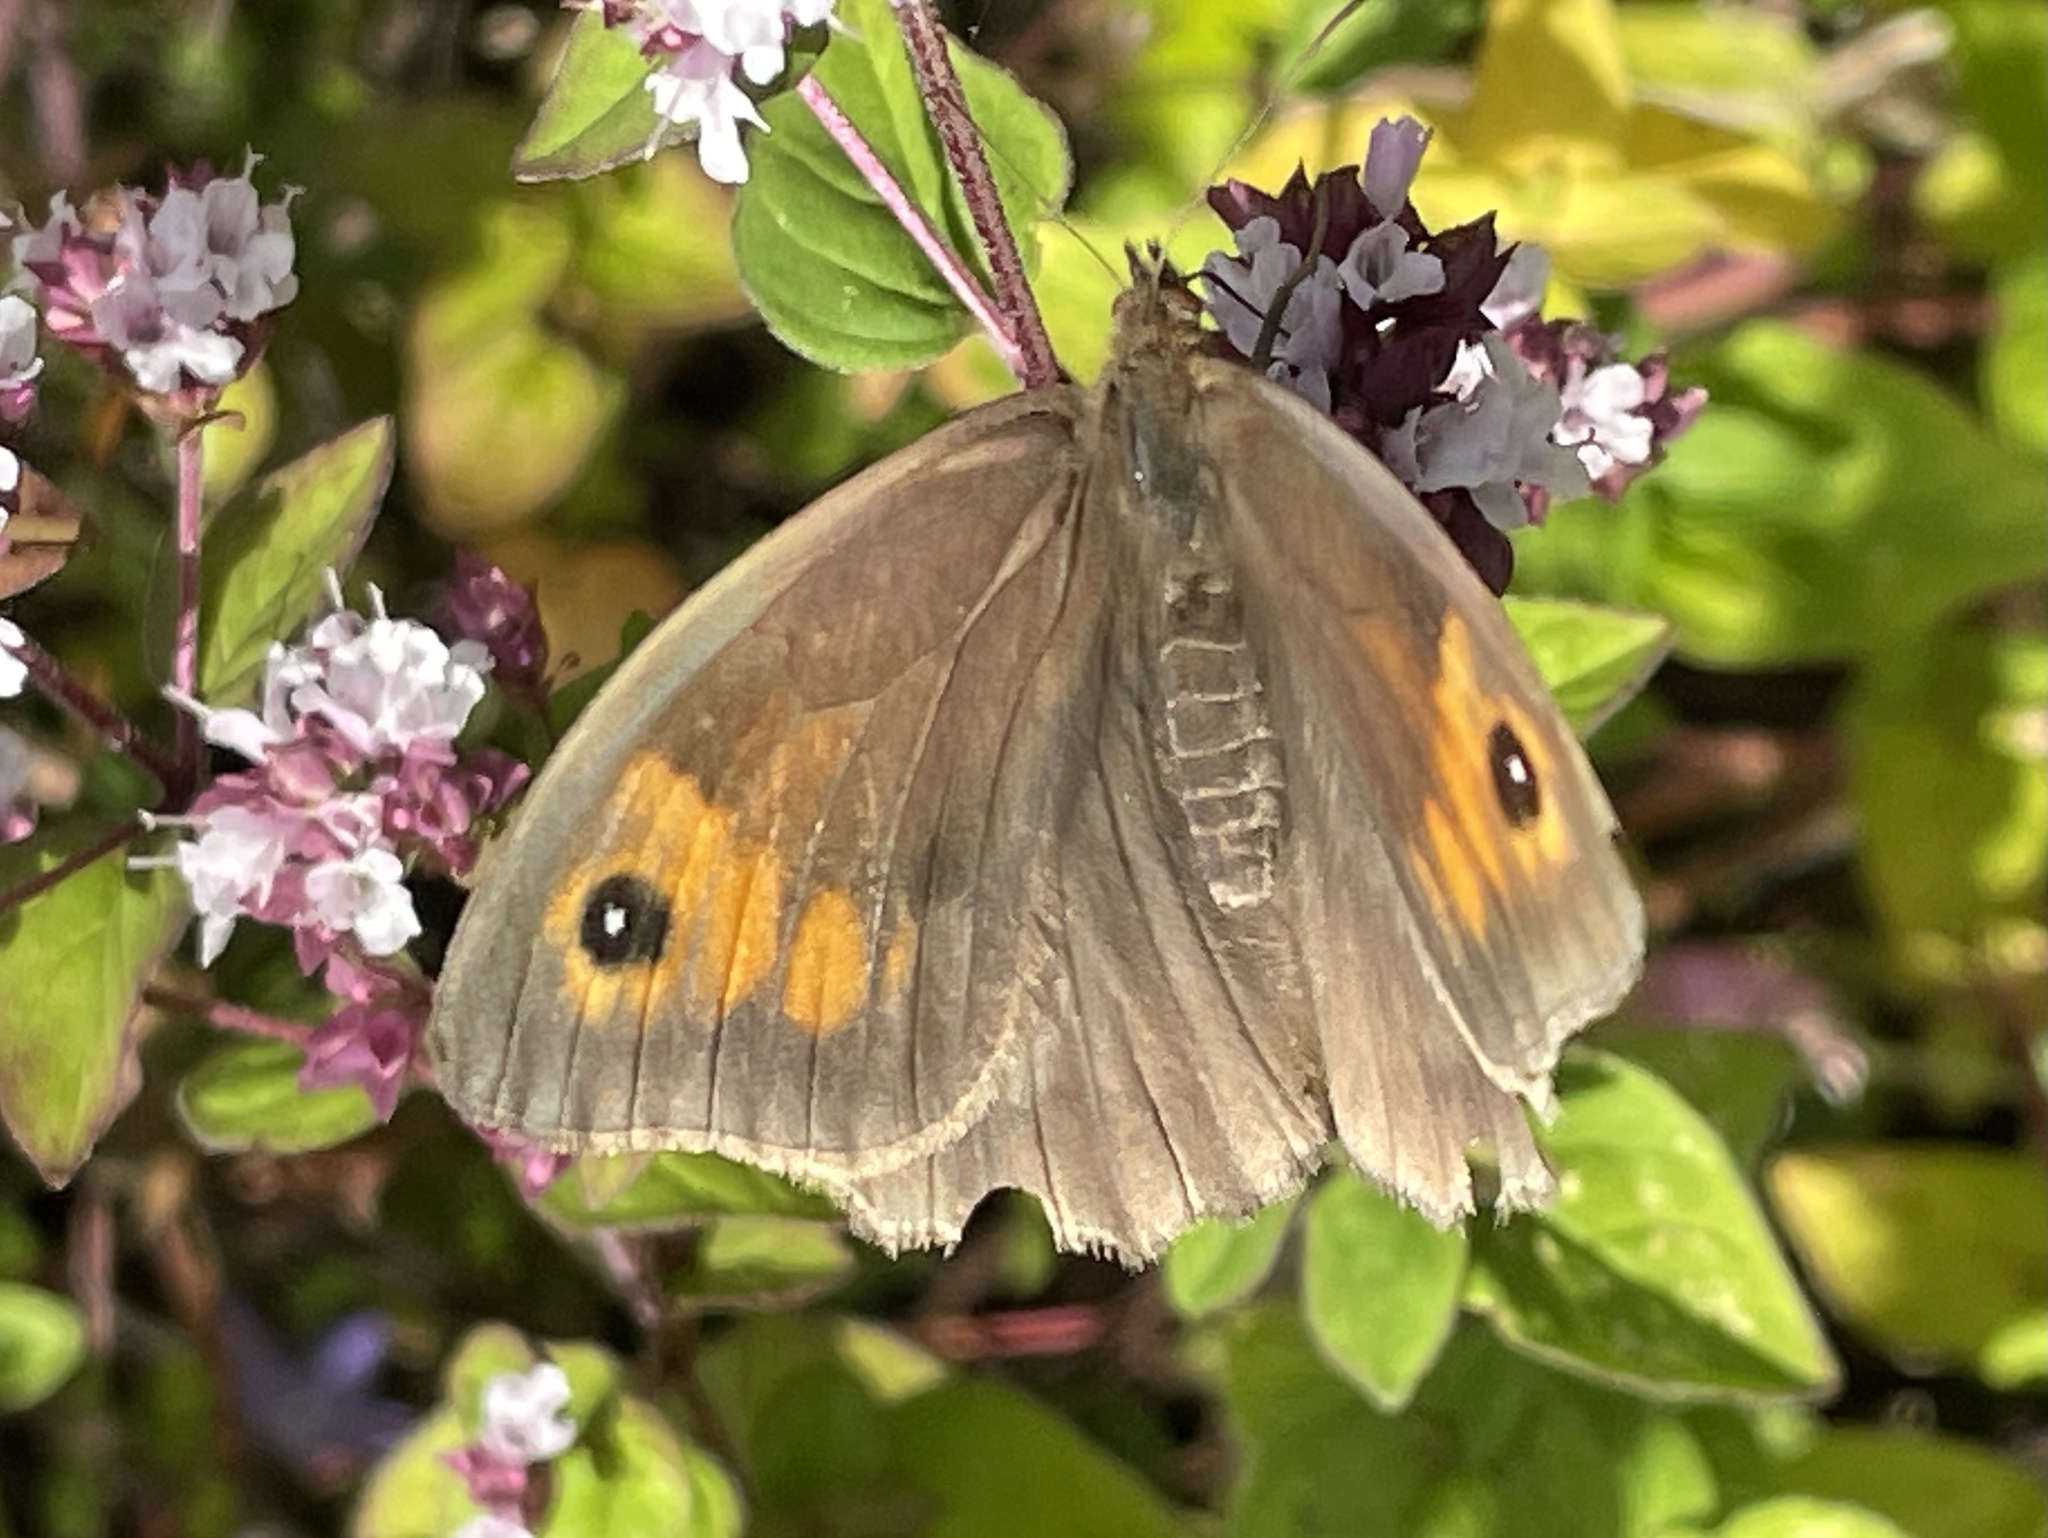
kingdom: Animalia
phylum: Arthropoda
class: Insecta
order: Lepidoptera
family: Nymphalidae
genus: Maniola
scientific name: Maniola jurtina
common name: Meadow brown
